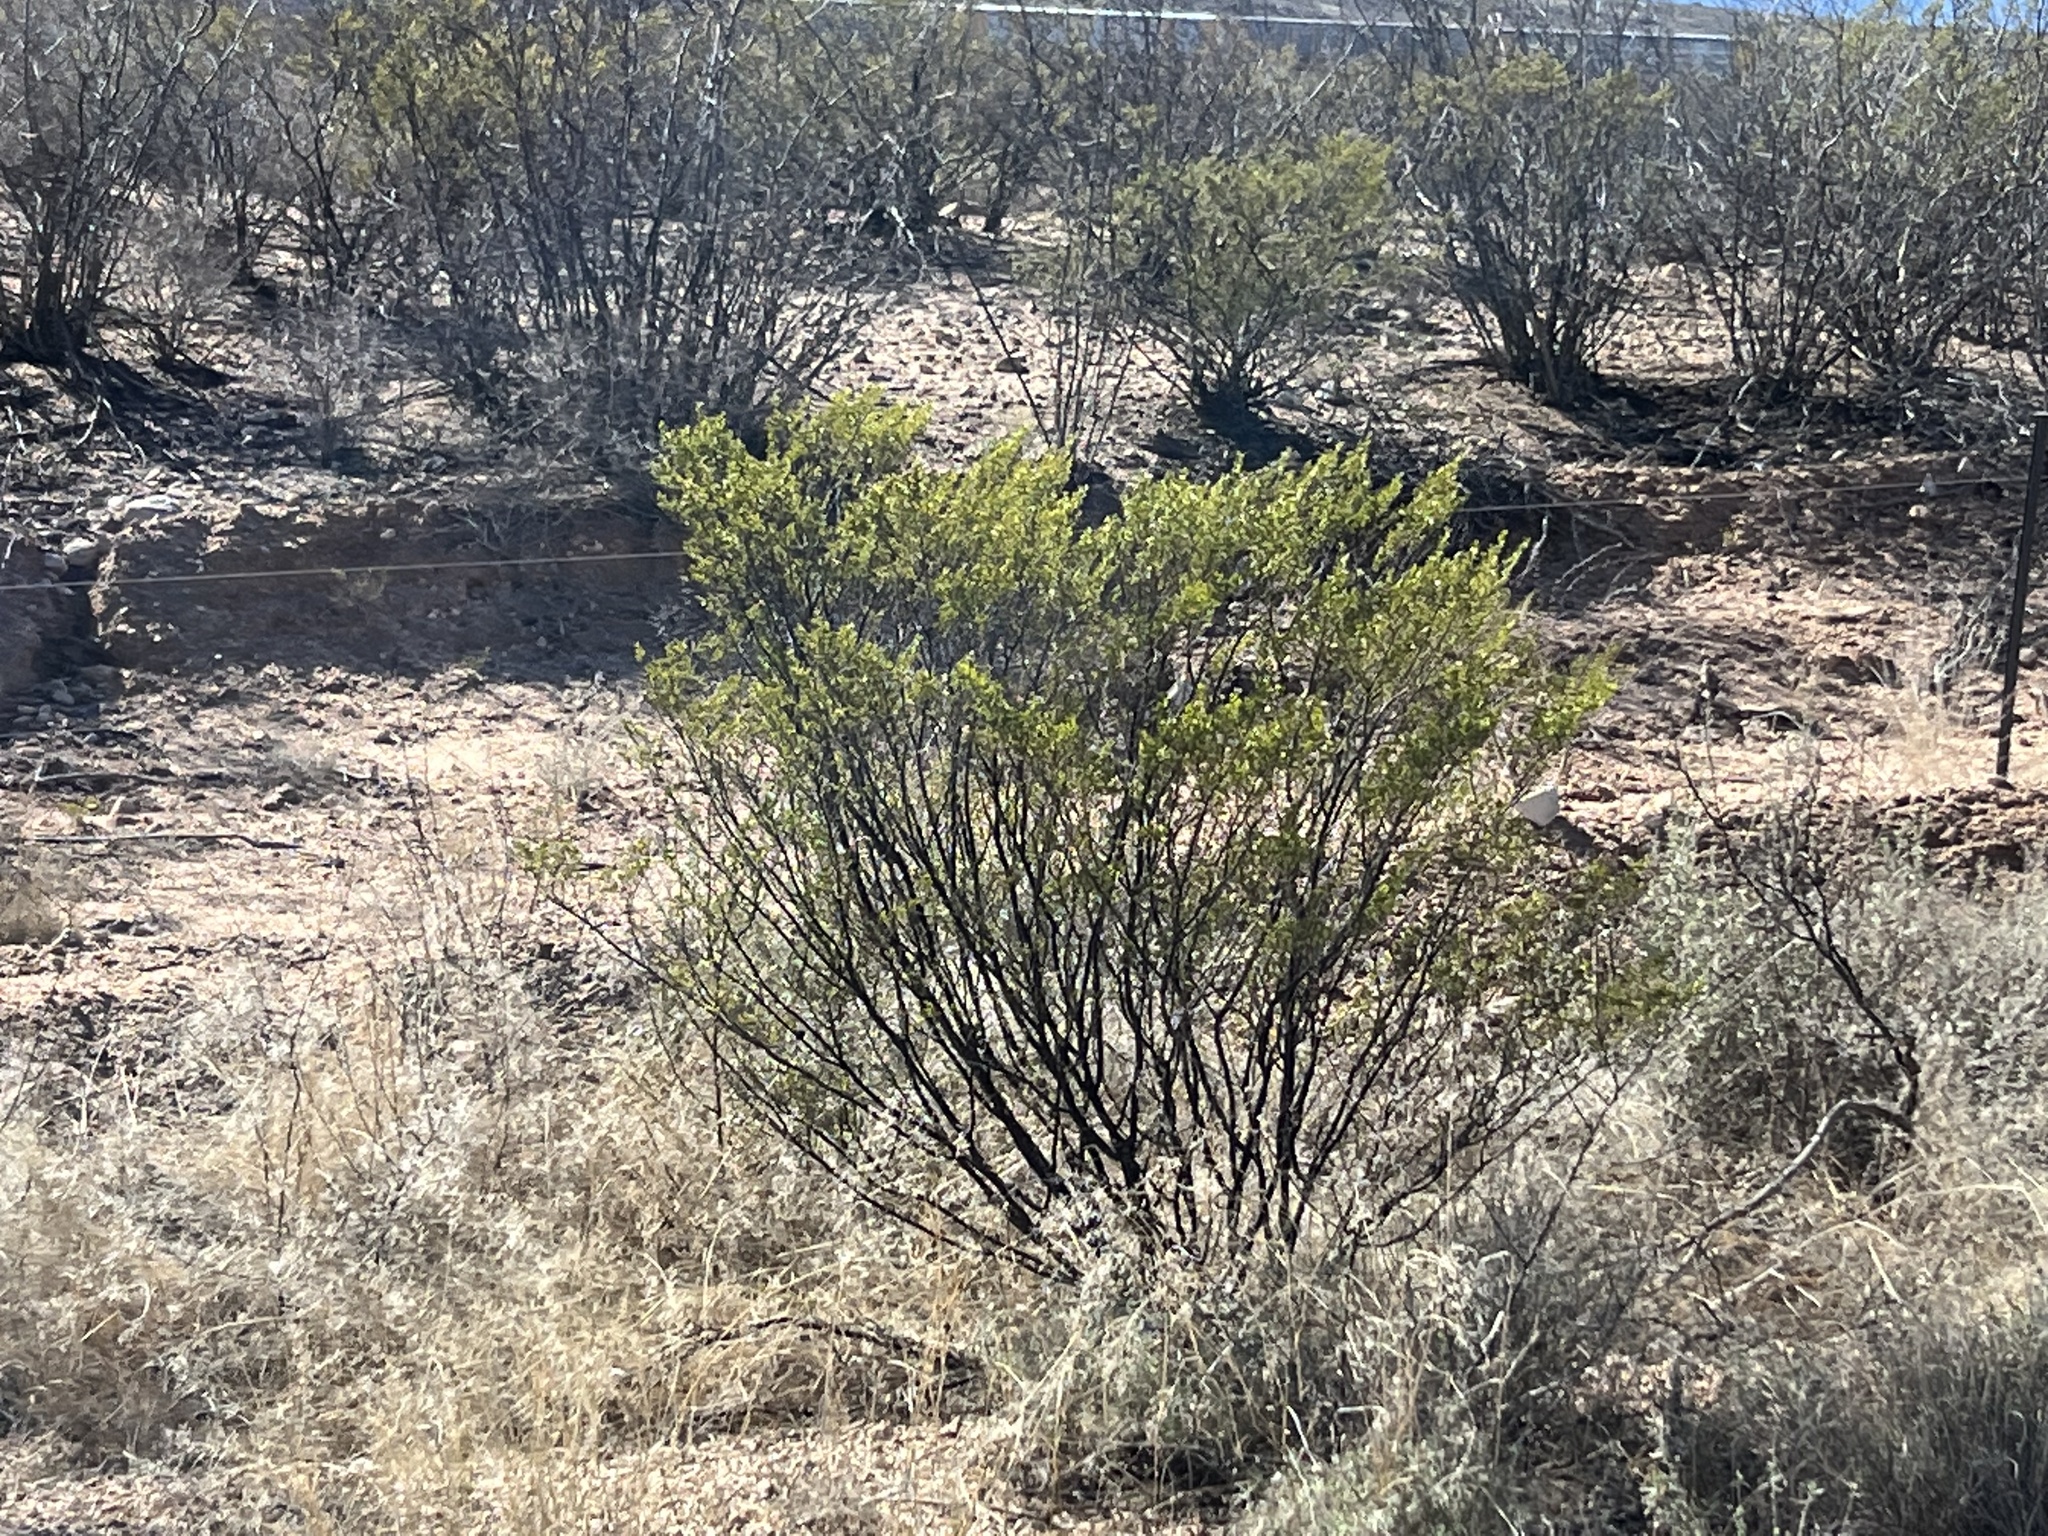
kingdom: Plantae
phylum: Tracheophyta
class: Magnoliopsida
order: Zygophyllales
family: Zygophyllaceae
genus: Larrea
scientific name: Larrea tridentata
